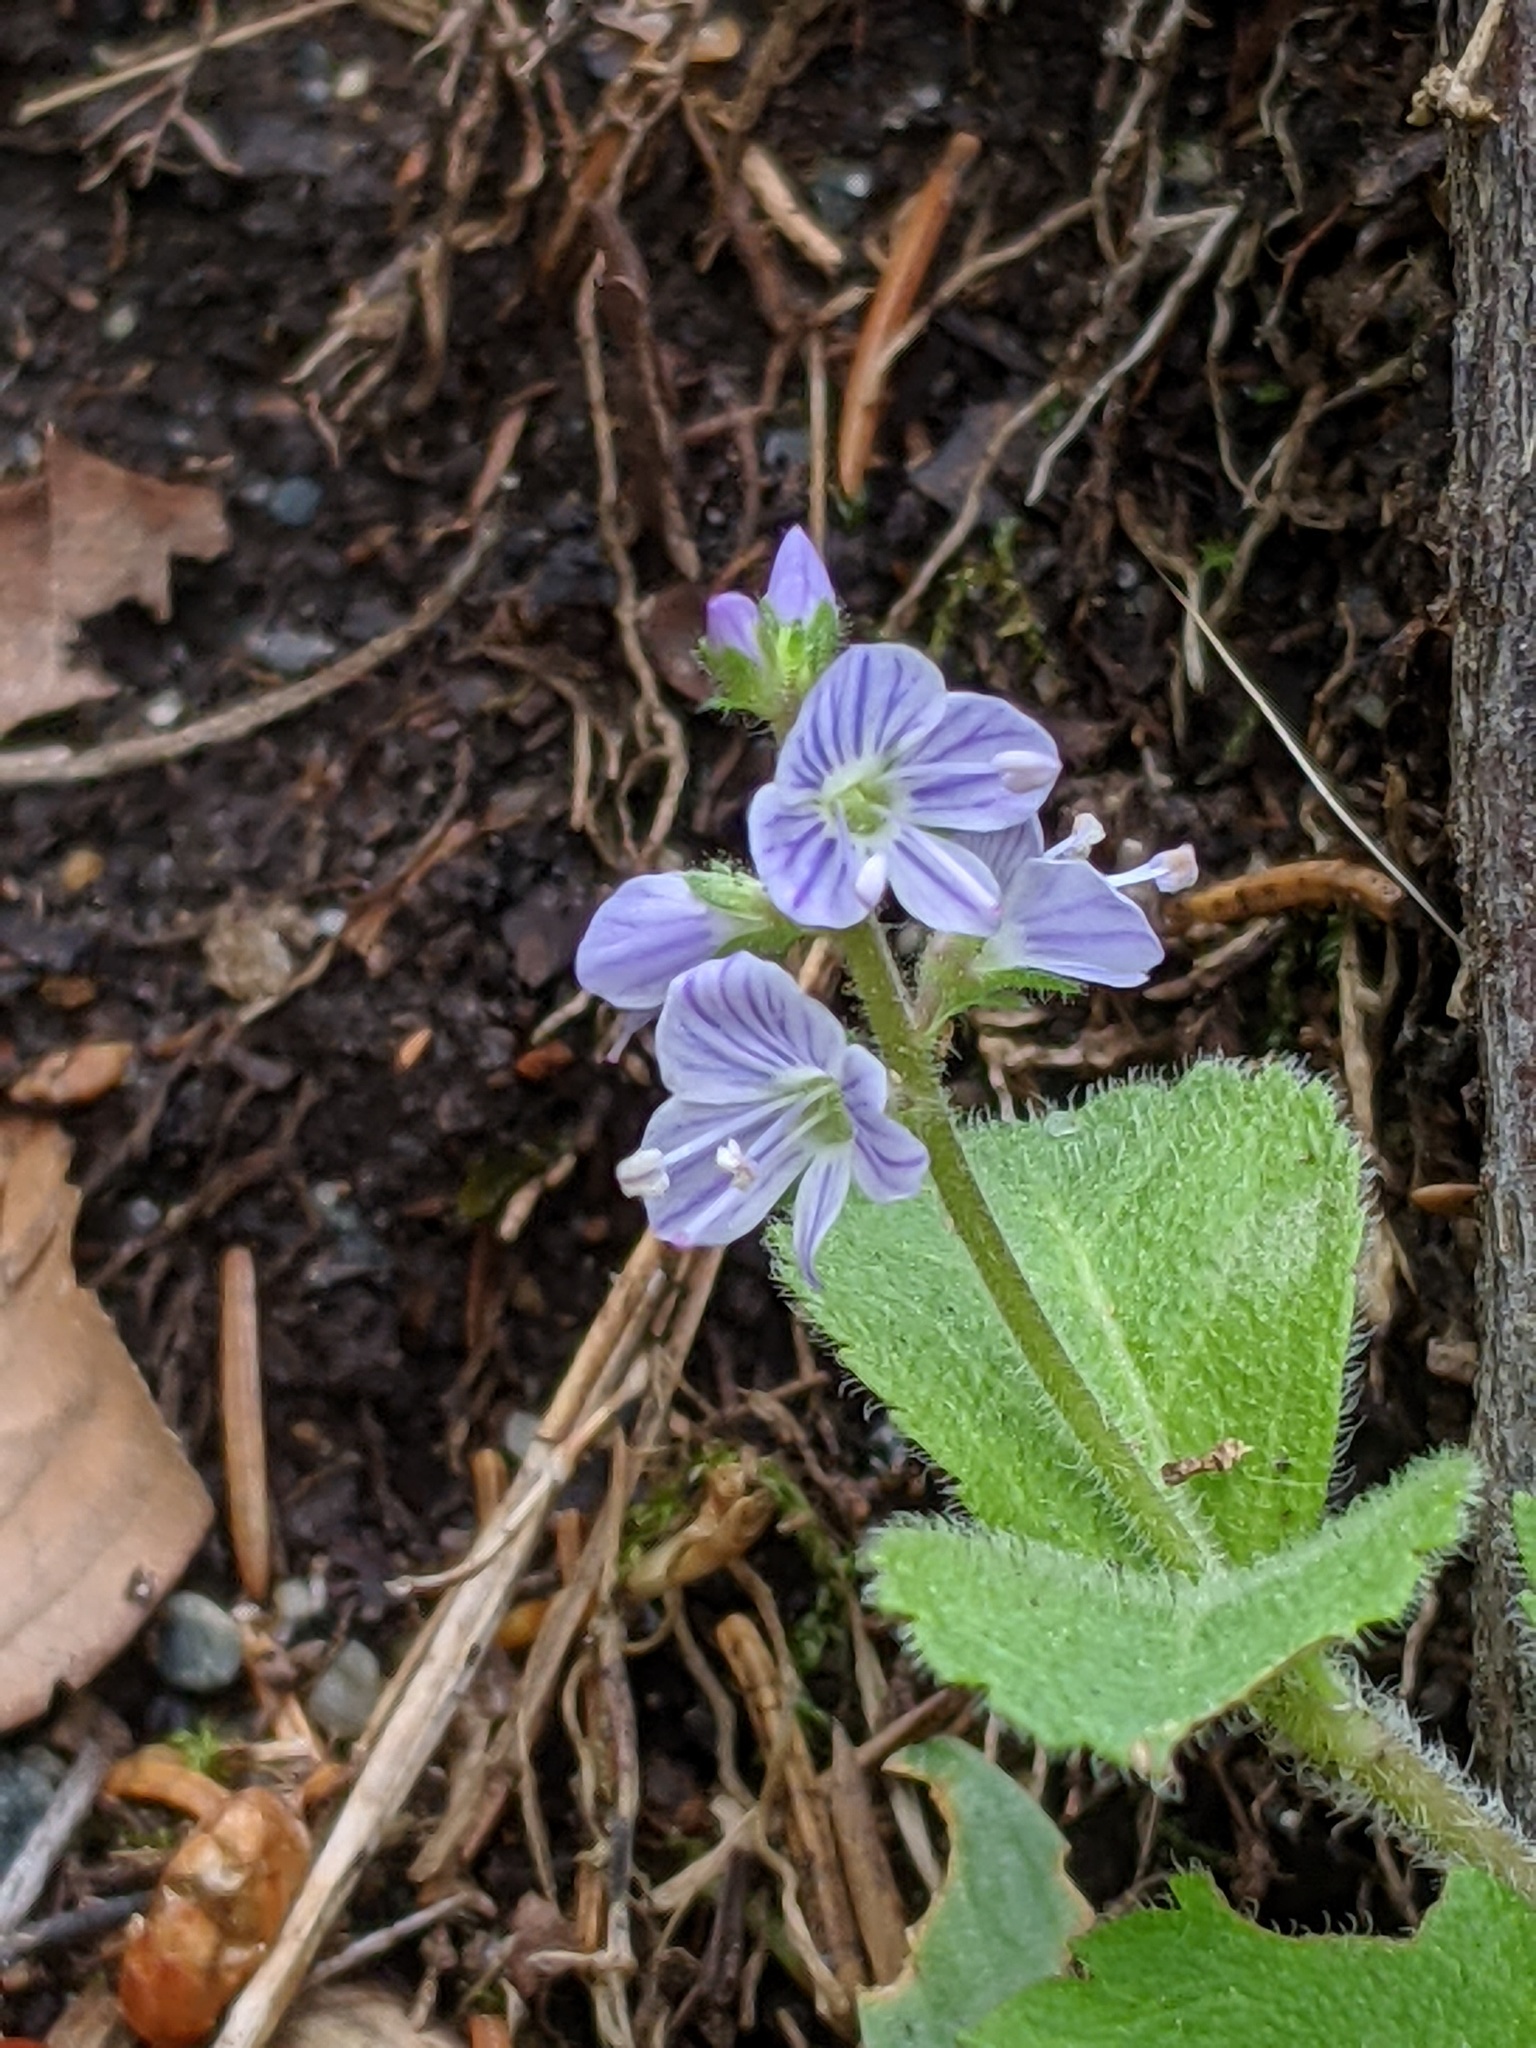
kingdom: Plantae
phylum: Tracheophyta
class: Magnoliopsida
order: Lamiales
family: Plantaginaceae
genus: Veronica
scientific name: Veronica officinalis
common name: Common speedwell
